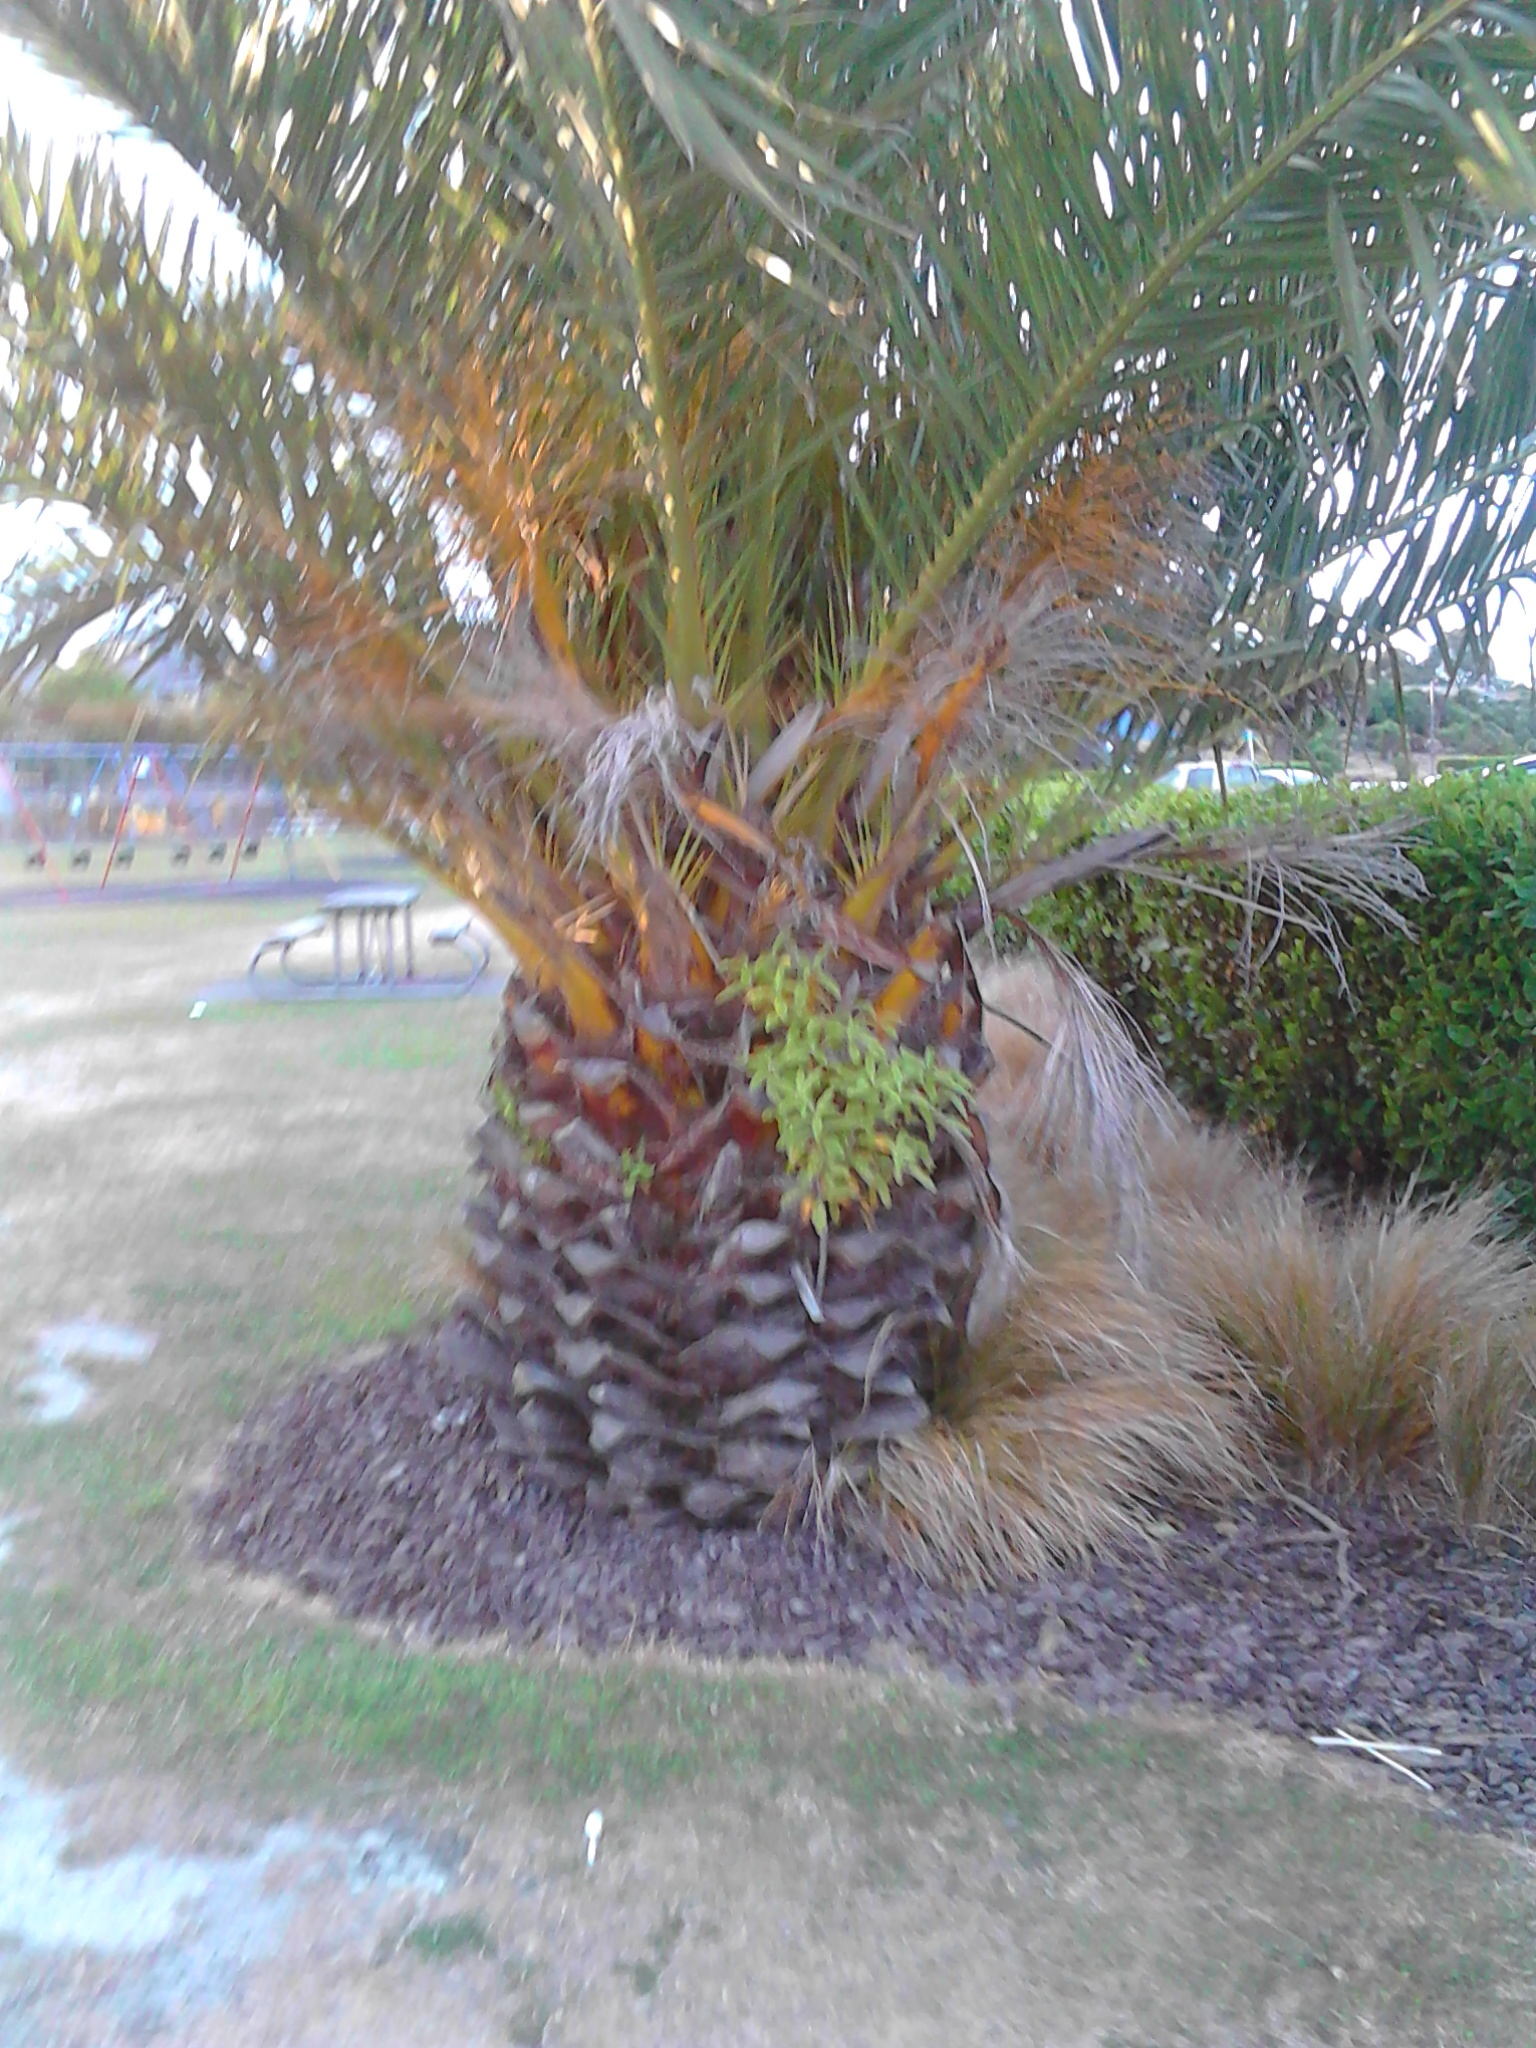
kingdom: Plantae
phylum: Tracheophyta
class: Magnoliopsida
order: Apiales
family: Pittosporaceae
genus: Pittosporum
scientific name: Pittosporum eugenioides
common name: Lemonwood
